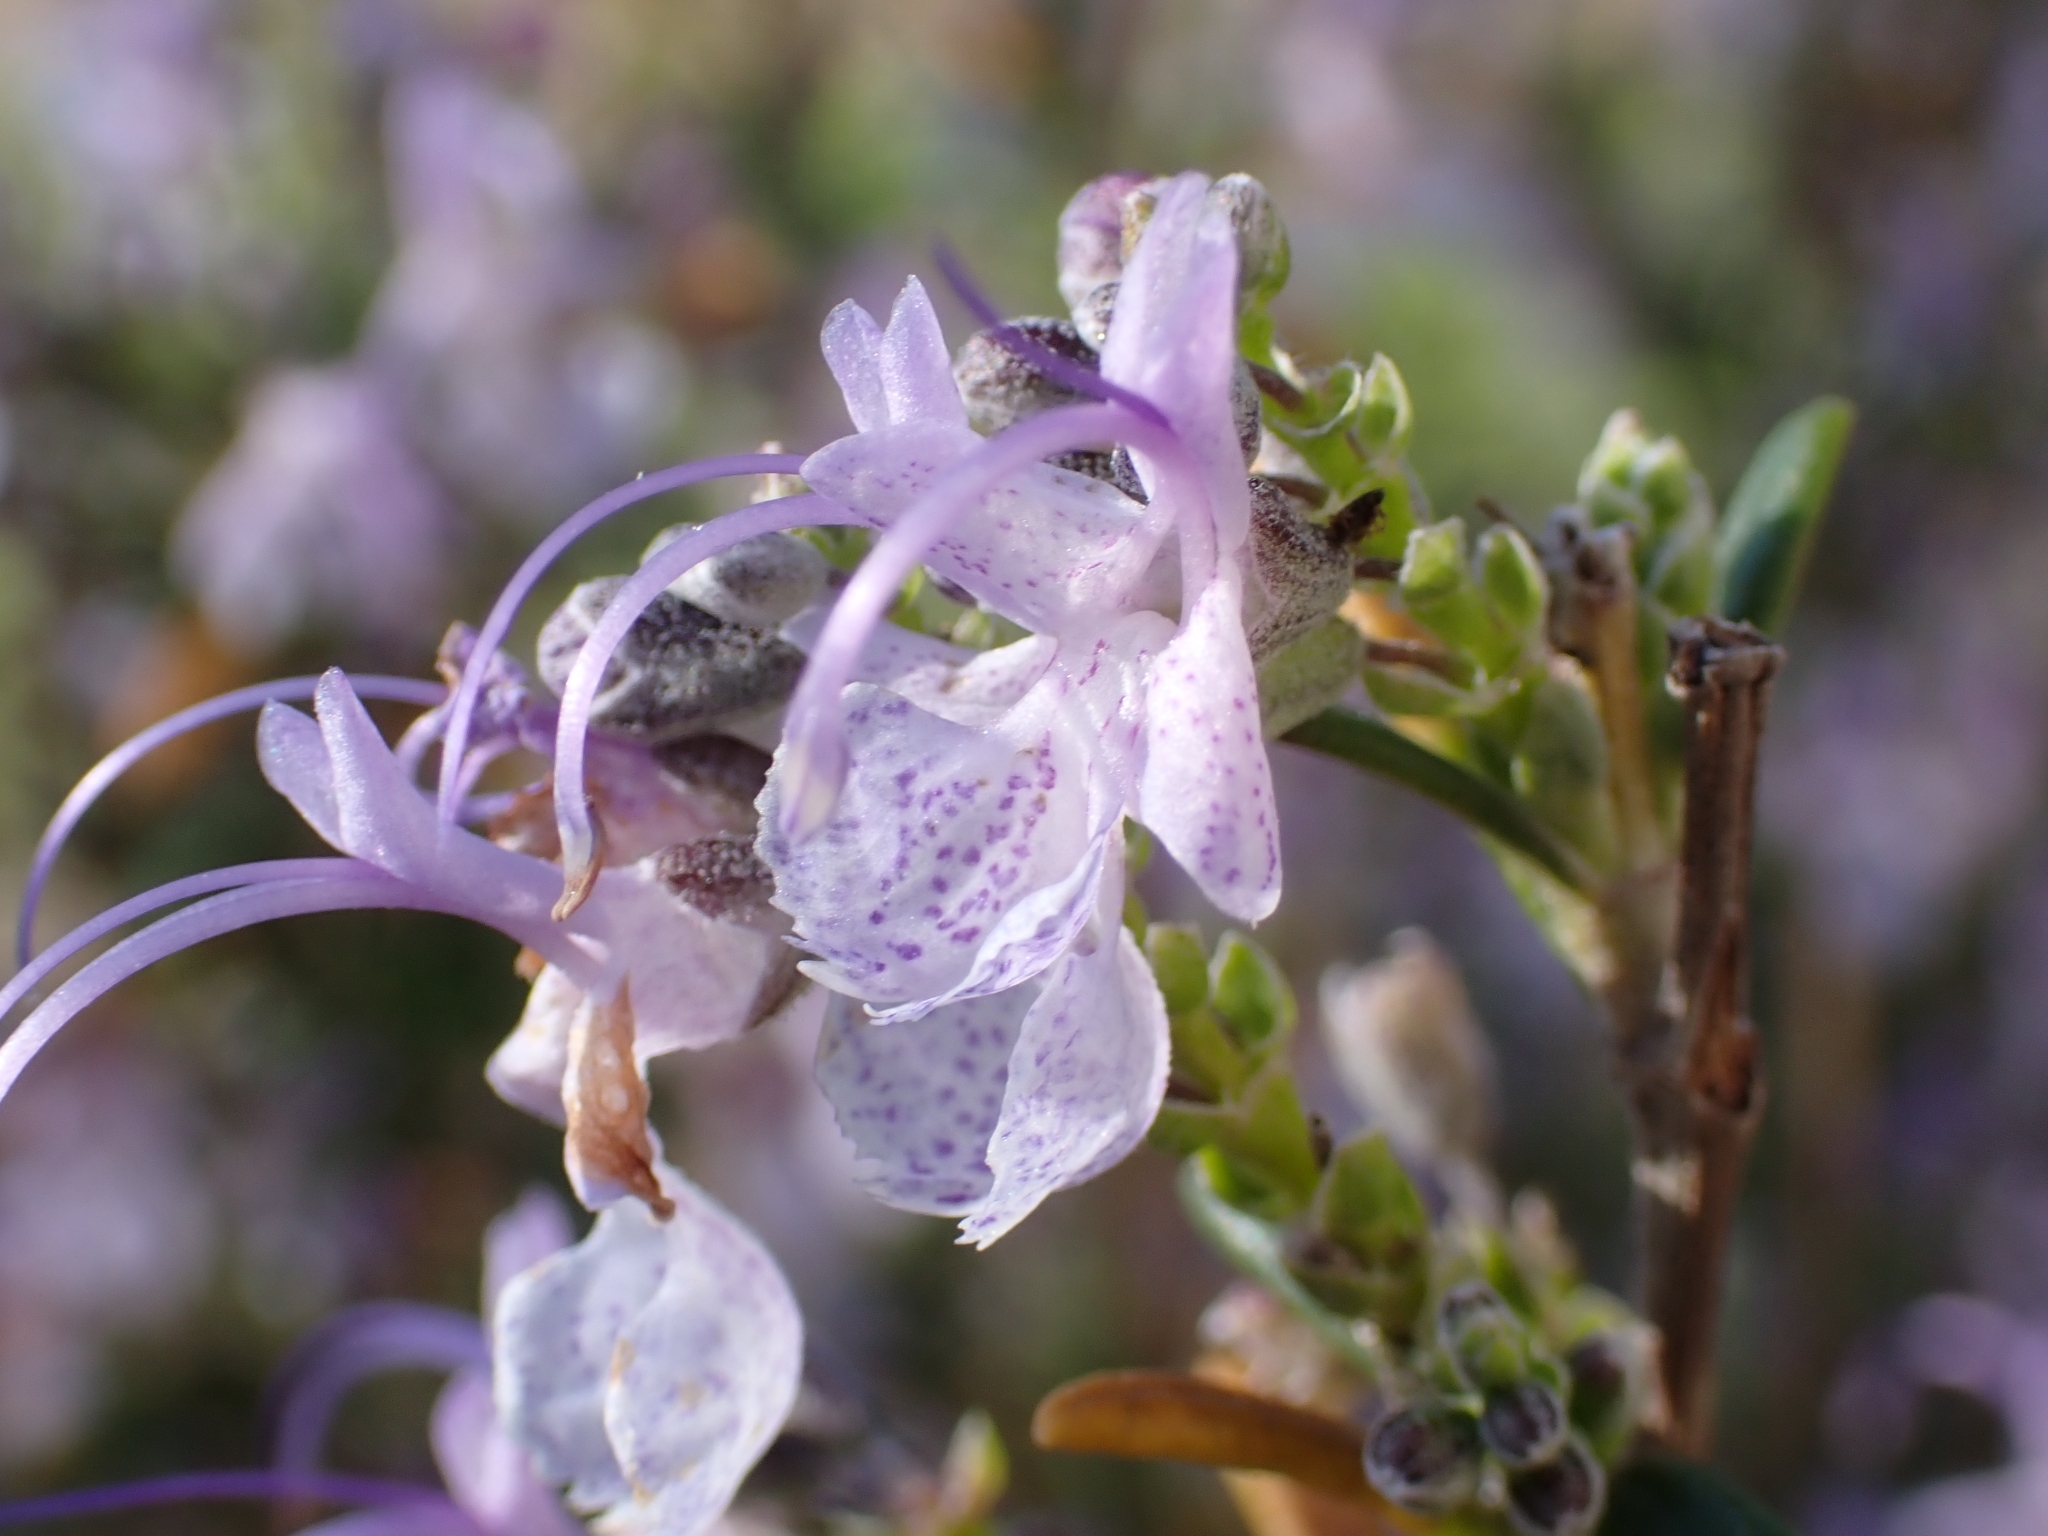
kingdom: Plantae
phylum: Tracheophyta
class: Magnoliopsida
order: Lamiales
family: Lamiaceae
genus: Salvia
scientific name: Salvia rosmarinus
